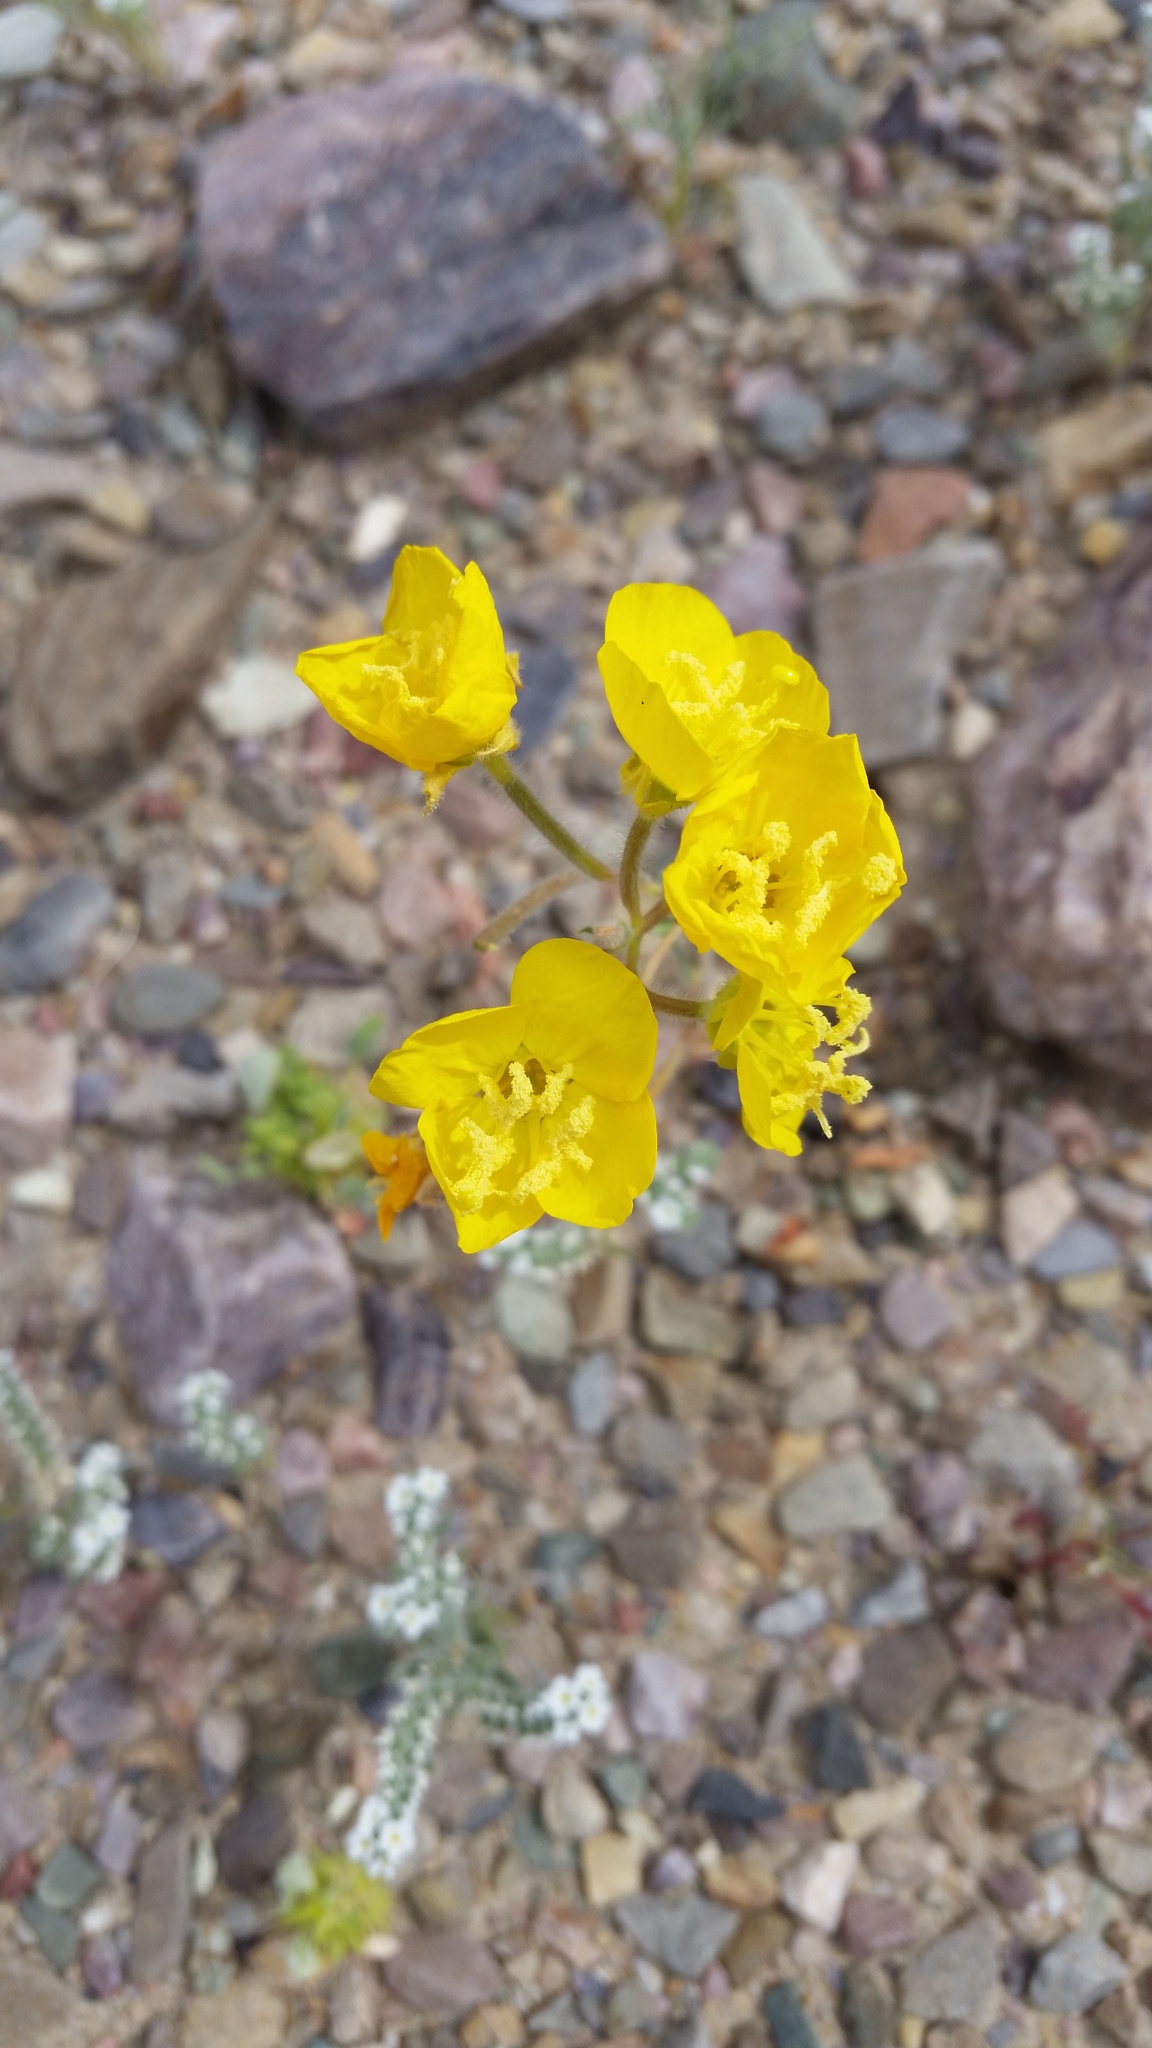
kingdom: Plantae
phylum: Tracheophyta
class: Magnoliopsida
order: Myrtales
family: Onagraceae
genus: Chylismia
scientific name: Chylismia brevipes
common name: Yellow cups
